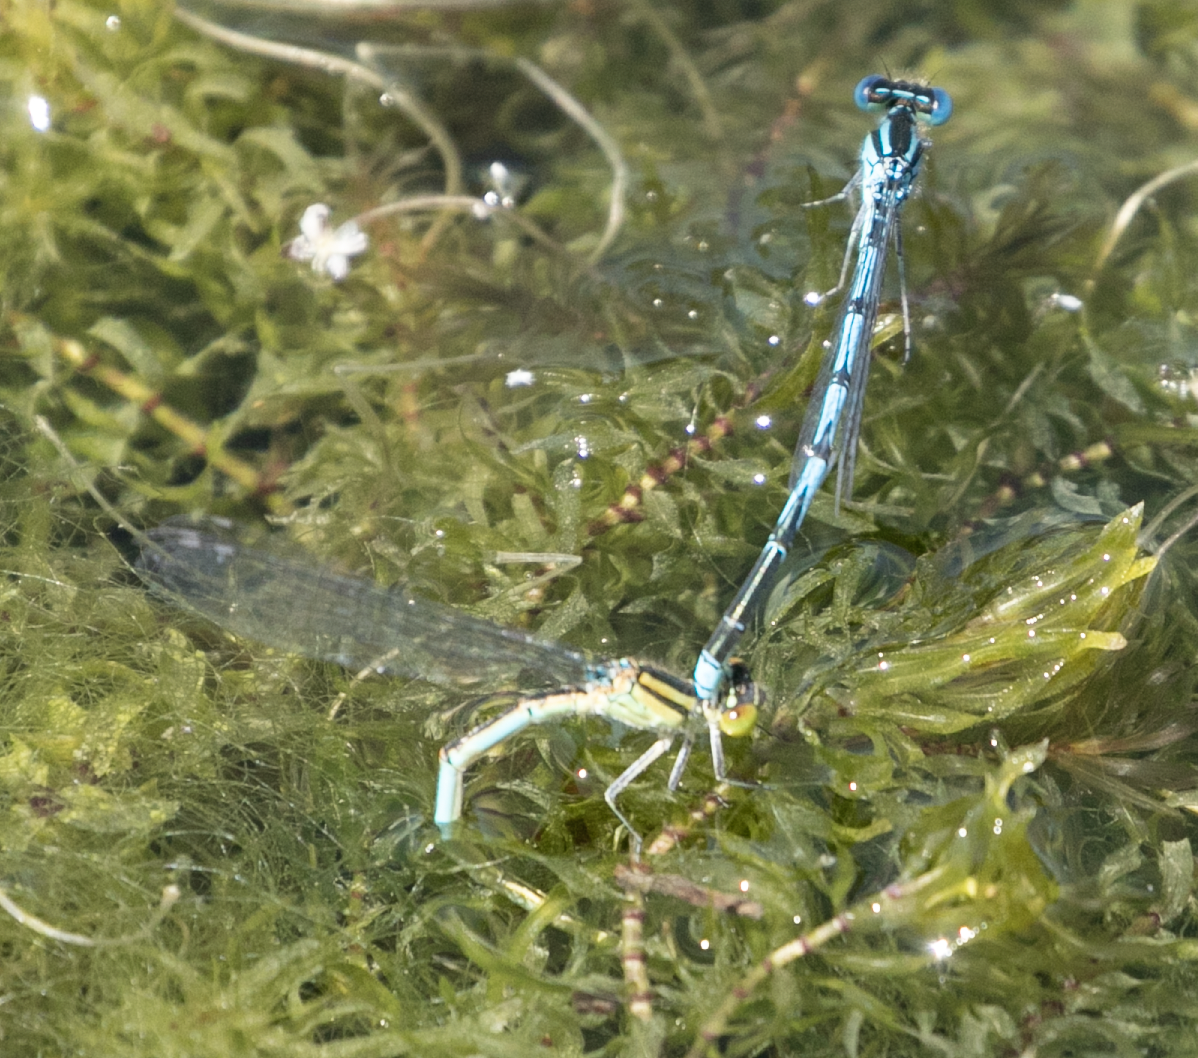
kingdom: Animalia
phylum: Arthropoda
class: Insecta
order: Odonata
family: Coenagrionidae
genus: Erythromma
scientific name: Erythromma lindenii
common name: Blue-eye
